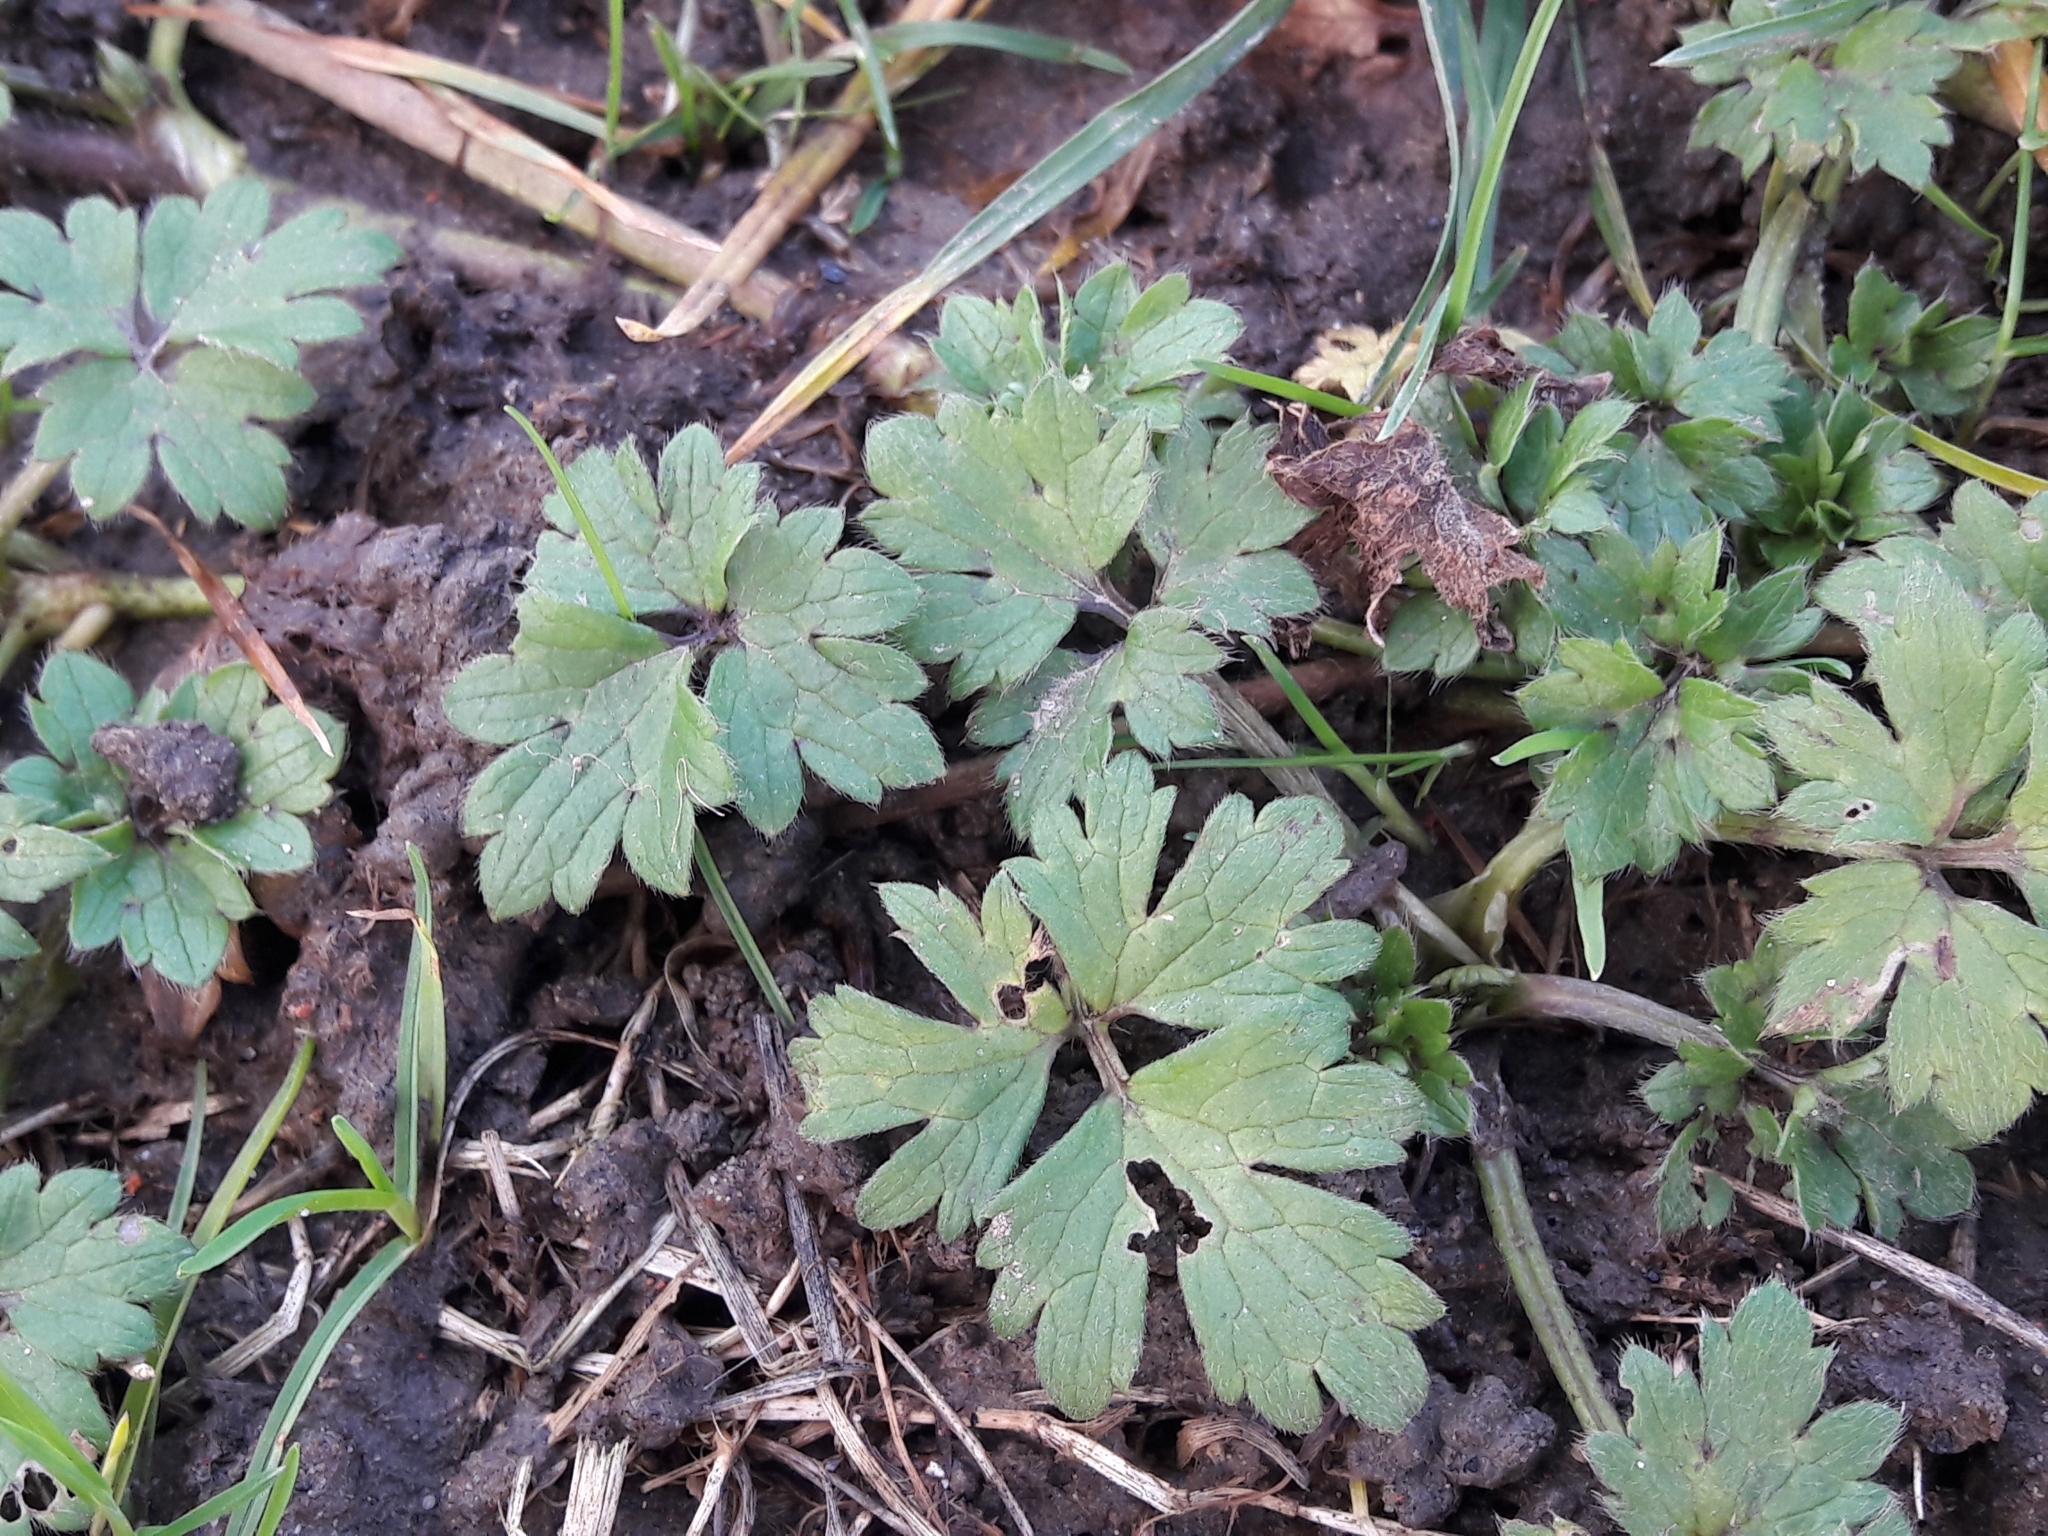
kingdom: Plantae
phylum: Tracheophyta
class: Magnoliopsida
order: Ranunculales
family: Ranunculaceae
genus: Ranunculus
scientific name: Ranunculus repens
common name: Creeping buttercup
